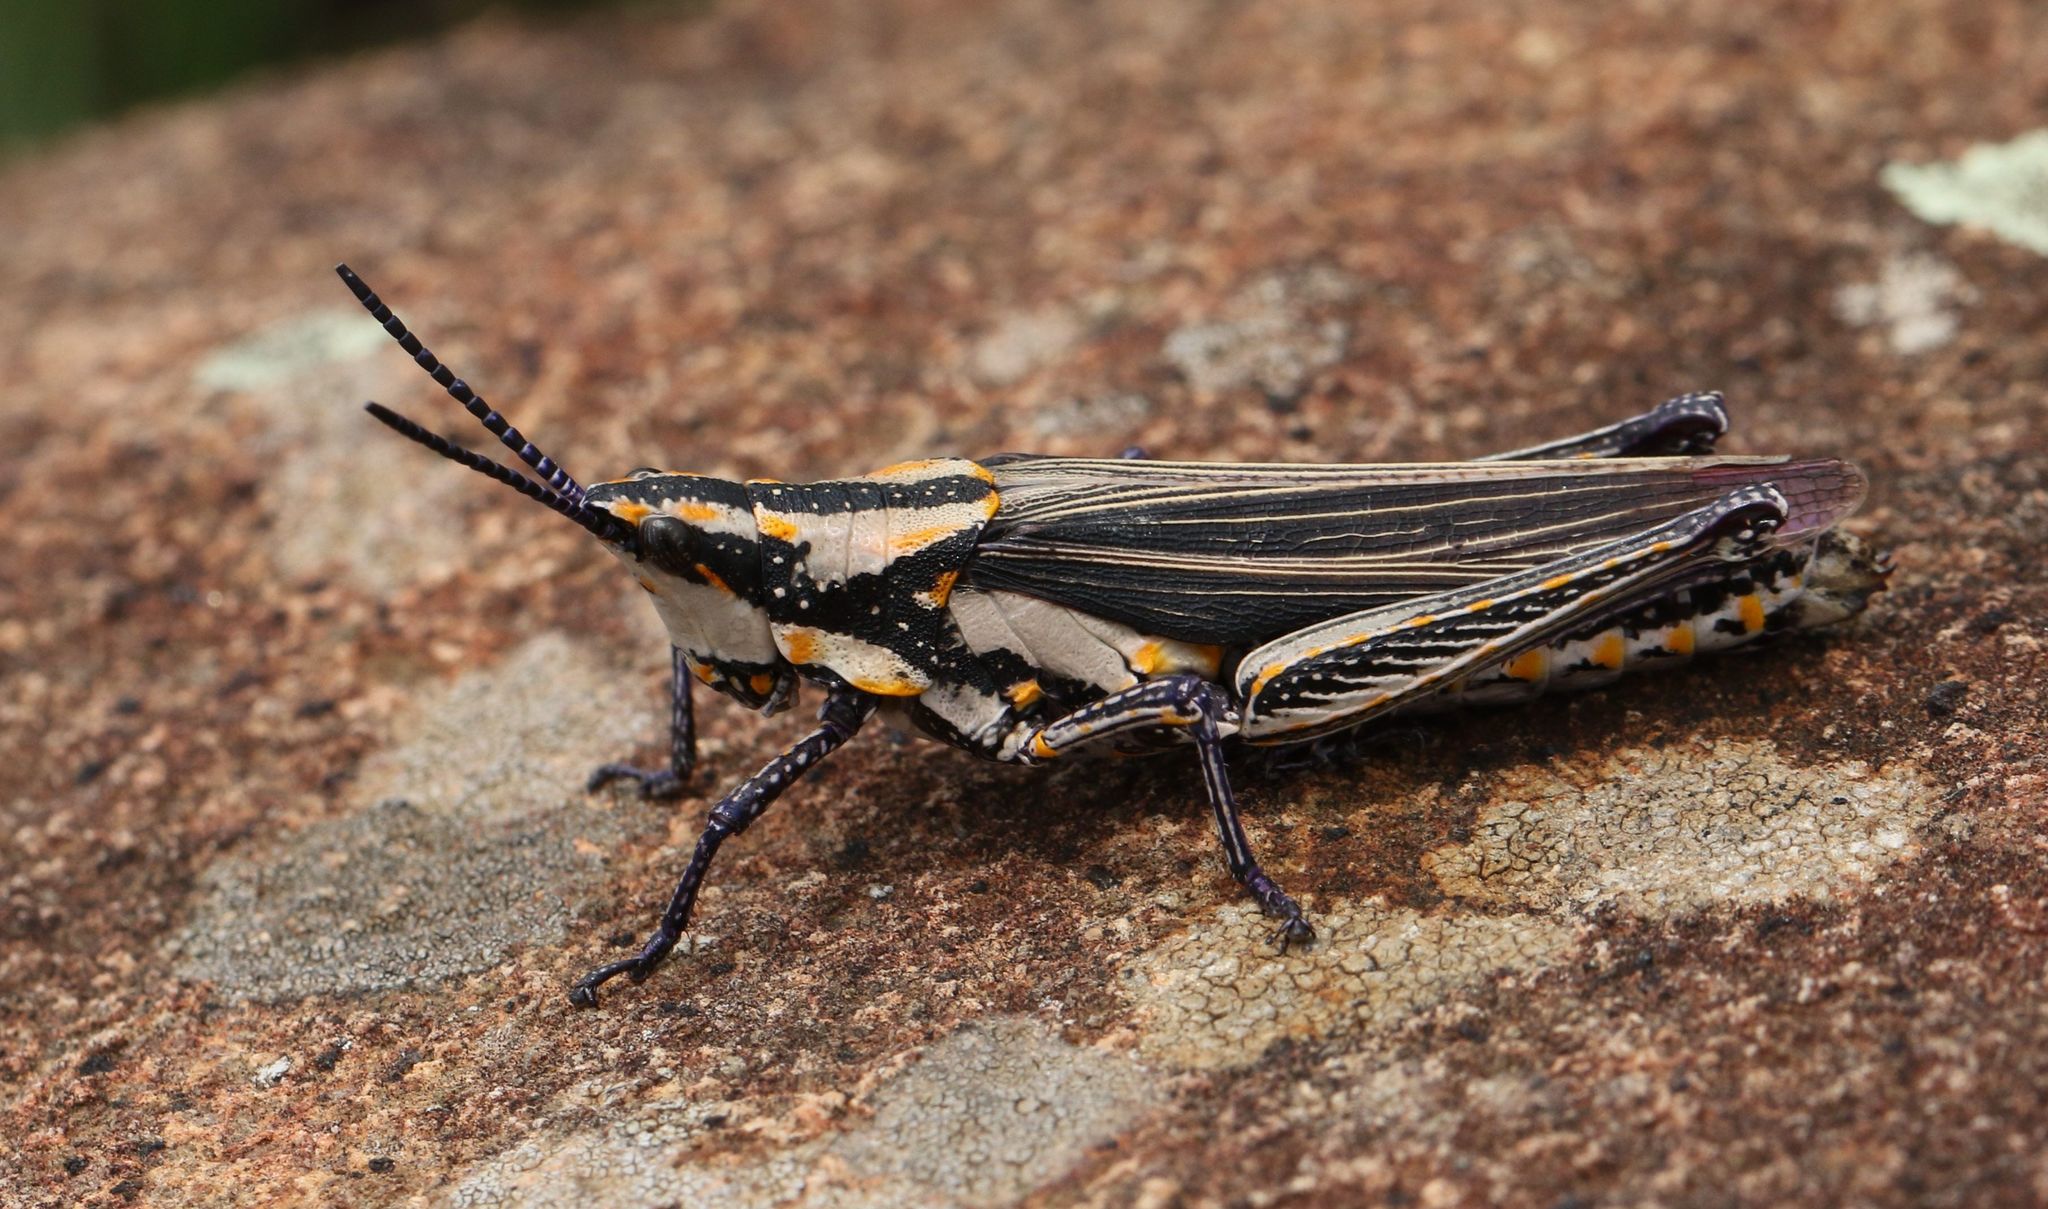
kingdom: Animalia
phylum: Arthropoda
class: Insecta
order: Orthoptera
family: Pyrgomorphidae
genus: Ochrophlebia
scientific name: Ochrophlebia cafra
